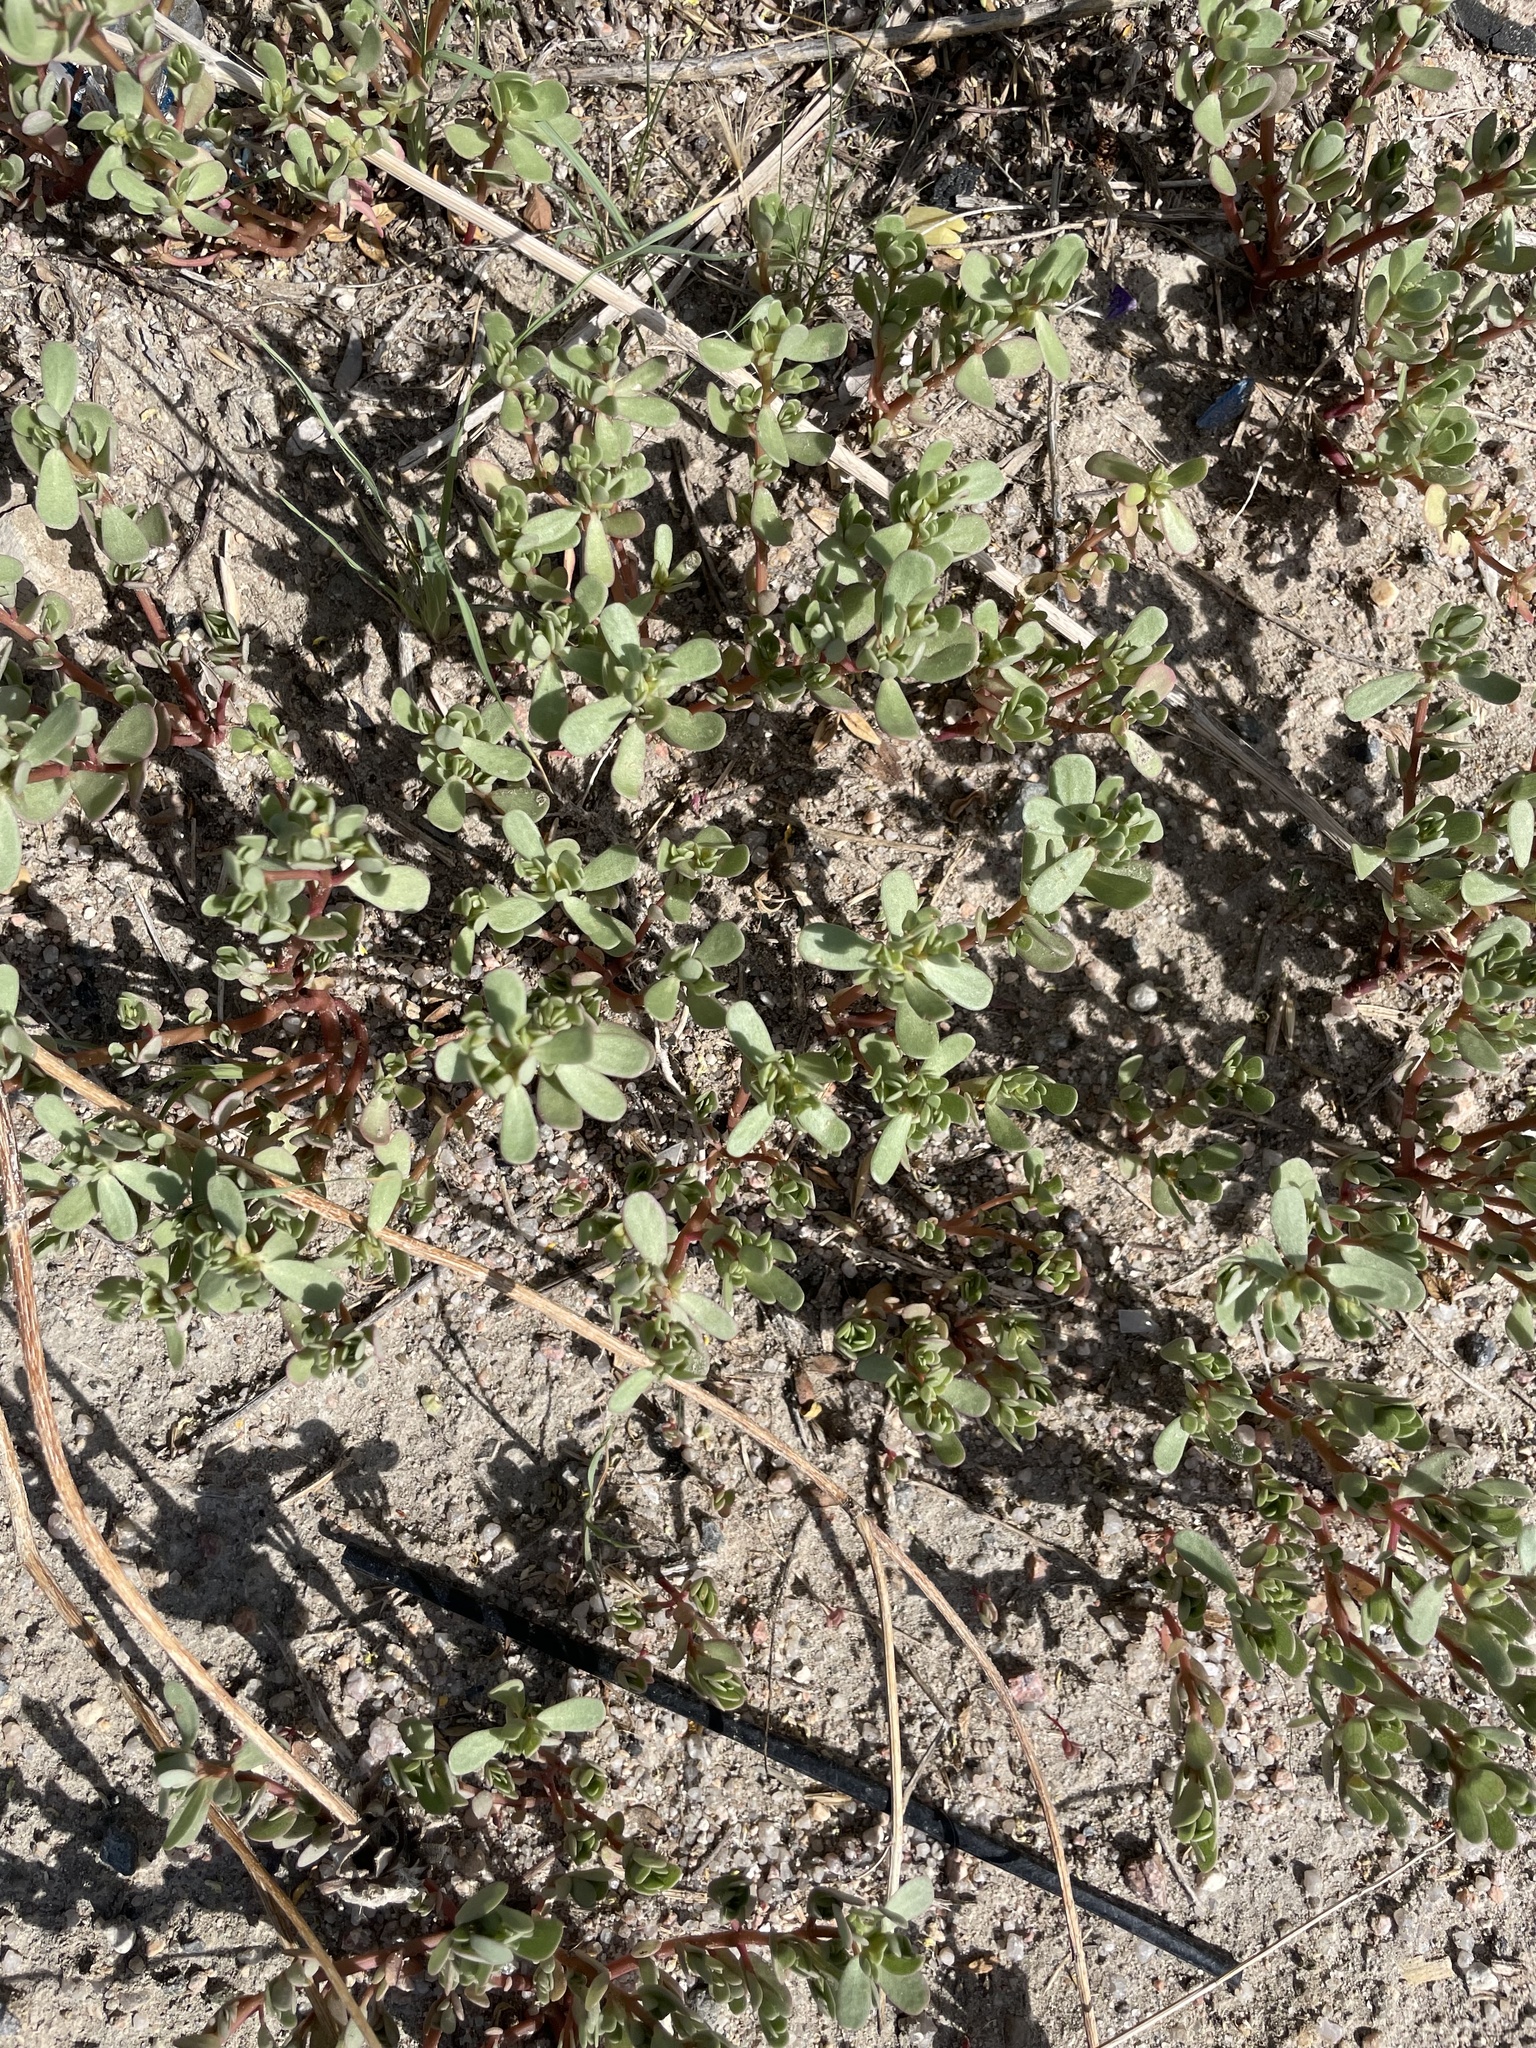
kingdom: Plantae
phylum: Tracheophyta
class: Magnoliopsida
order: Caryophyllales
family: Portulacaceae
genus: Portulaca
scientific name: Portulaca oleracea
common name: Common purslane
